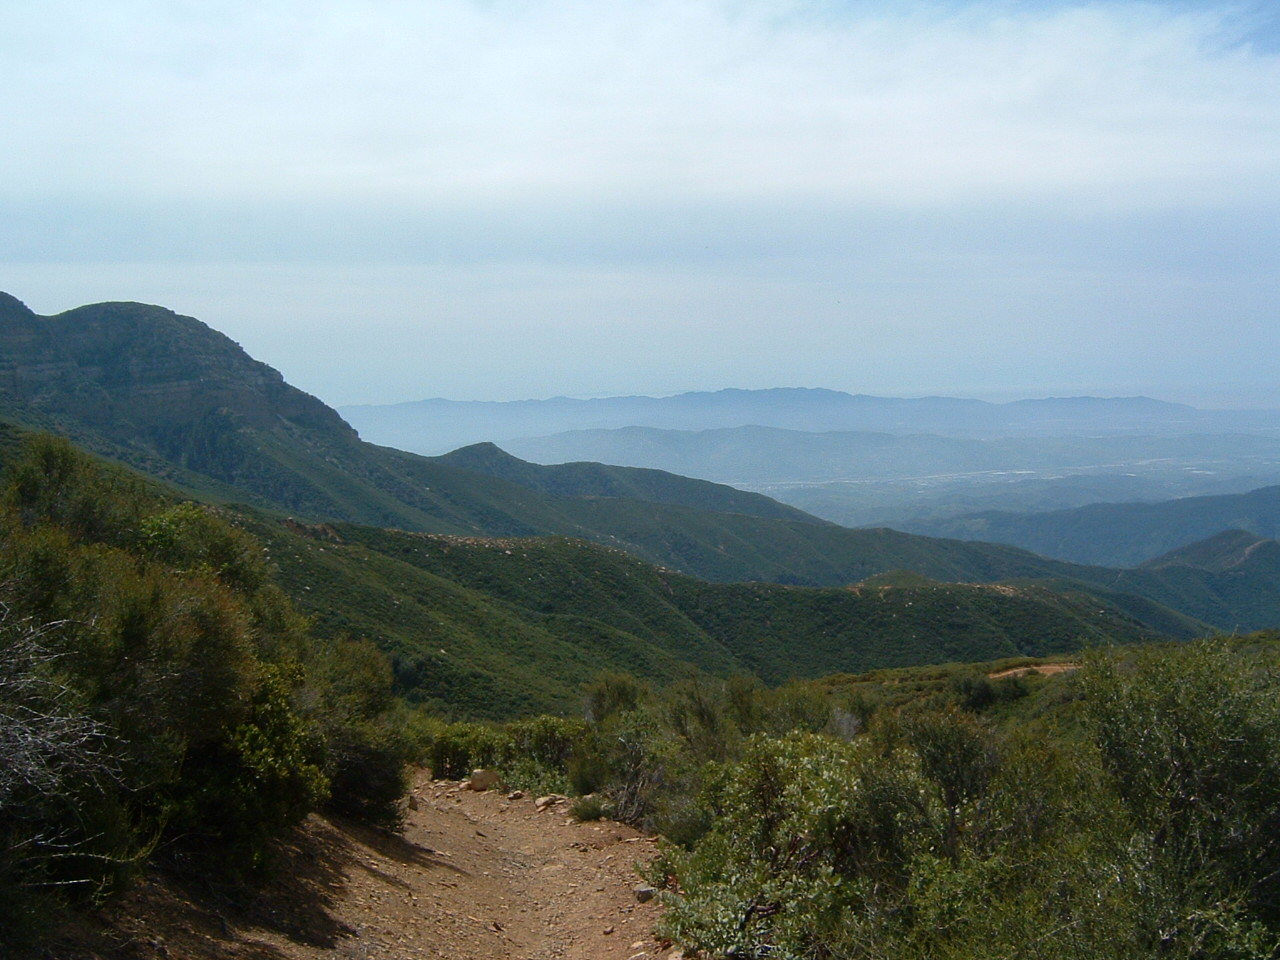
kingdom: Plantae
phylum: Tracheophyta
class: Magnoliopsida
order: Rosales
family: Rosaceae
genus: Adenostoma
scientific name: Adenostoma fasciculatum
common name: Chamise
